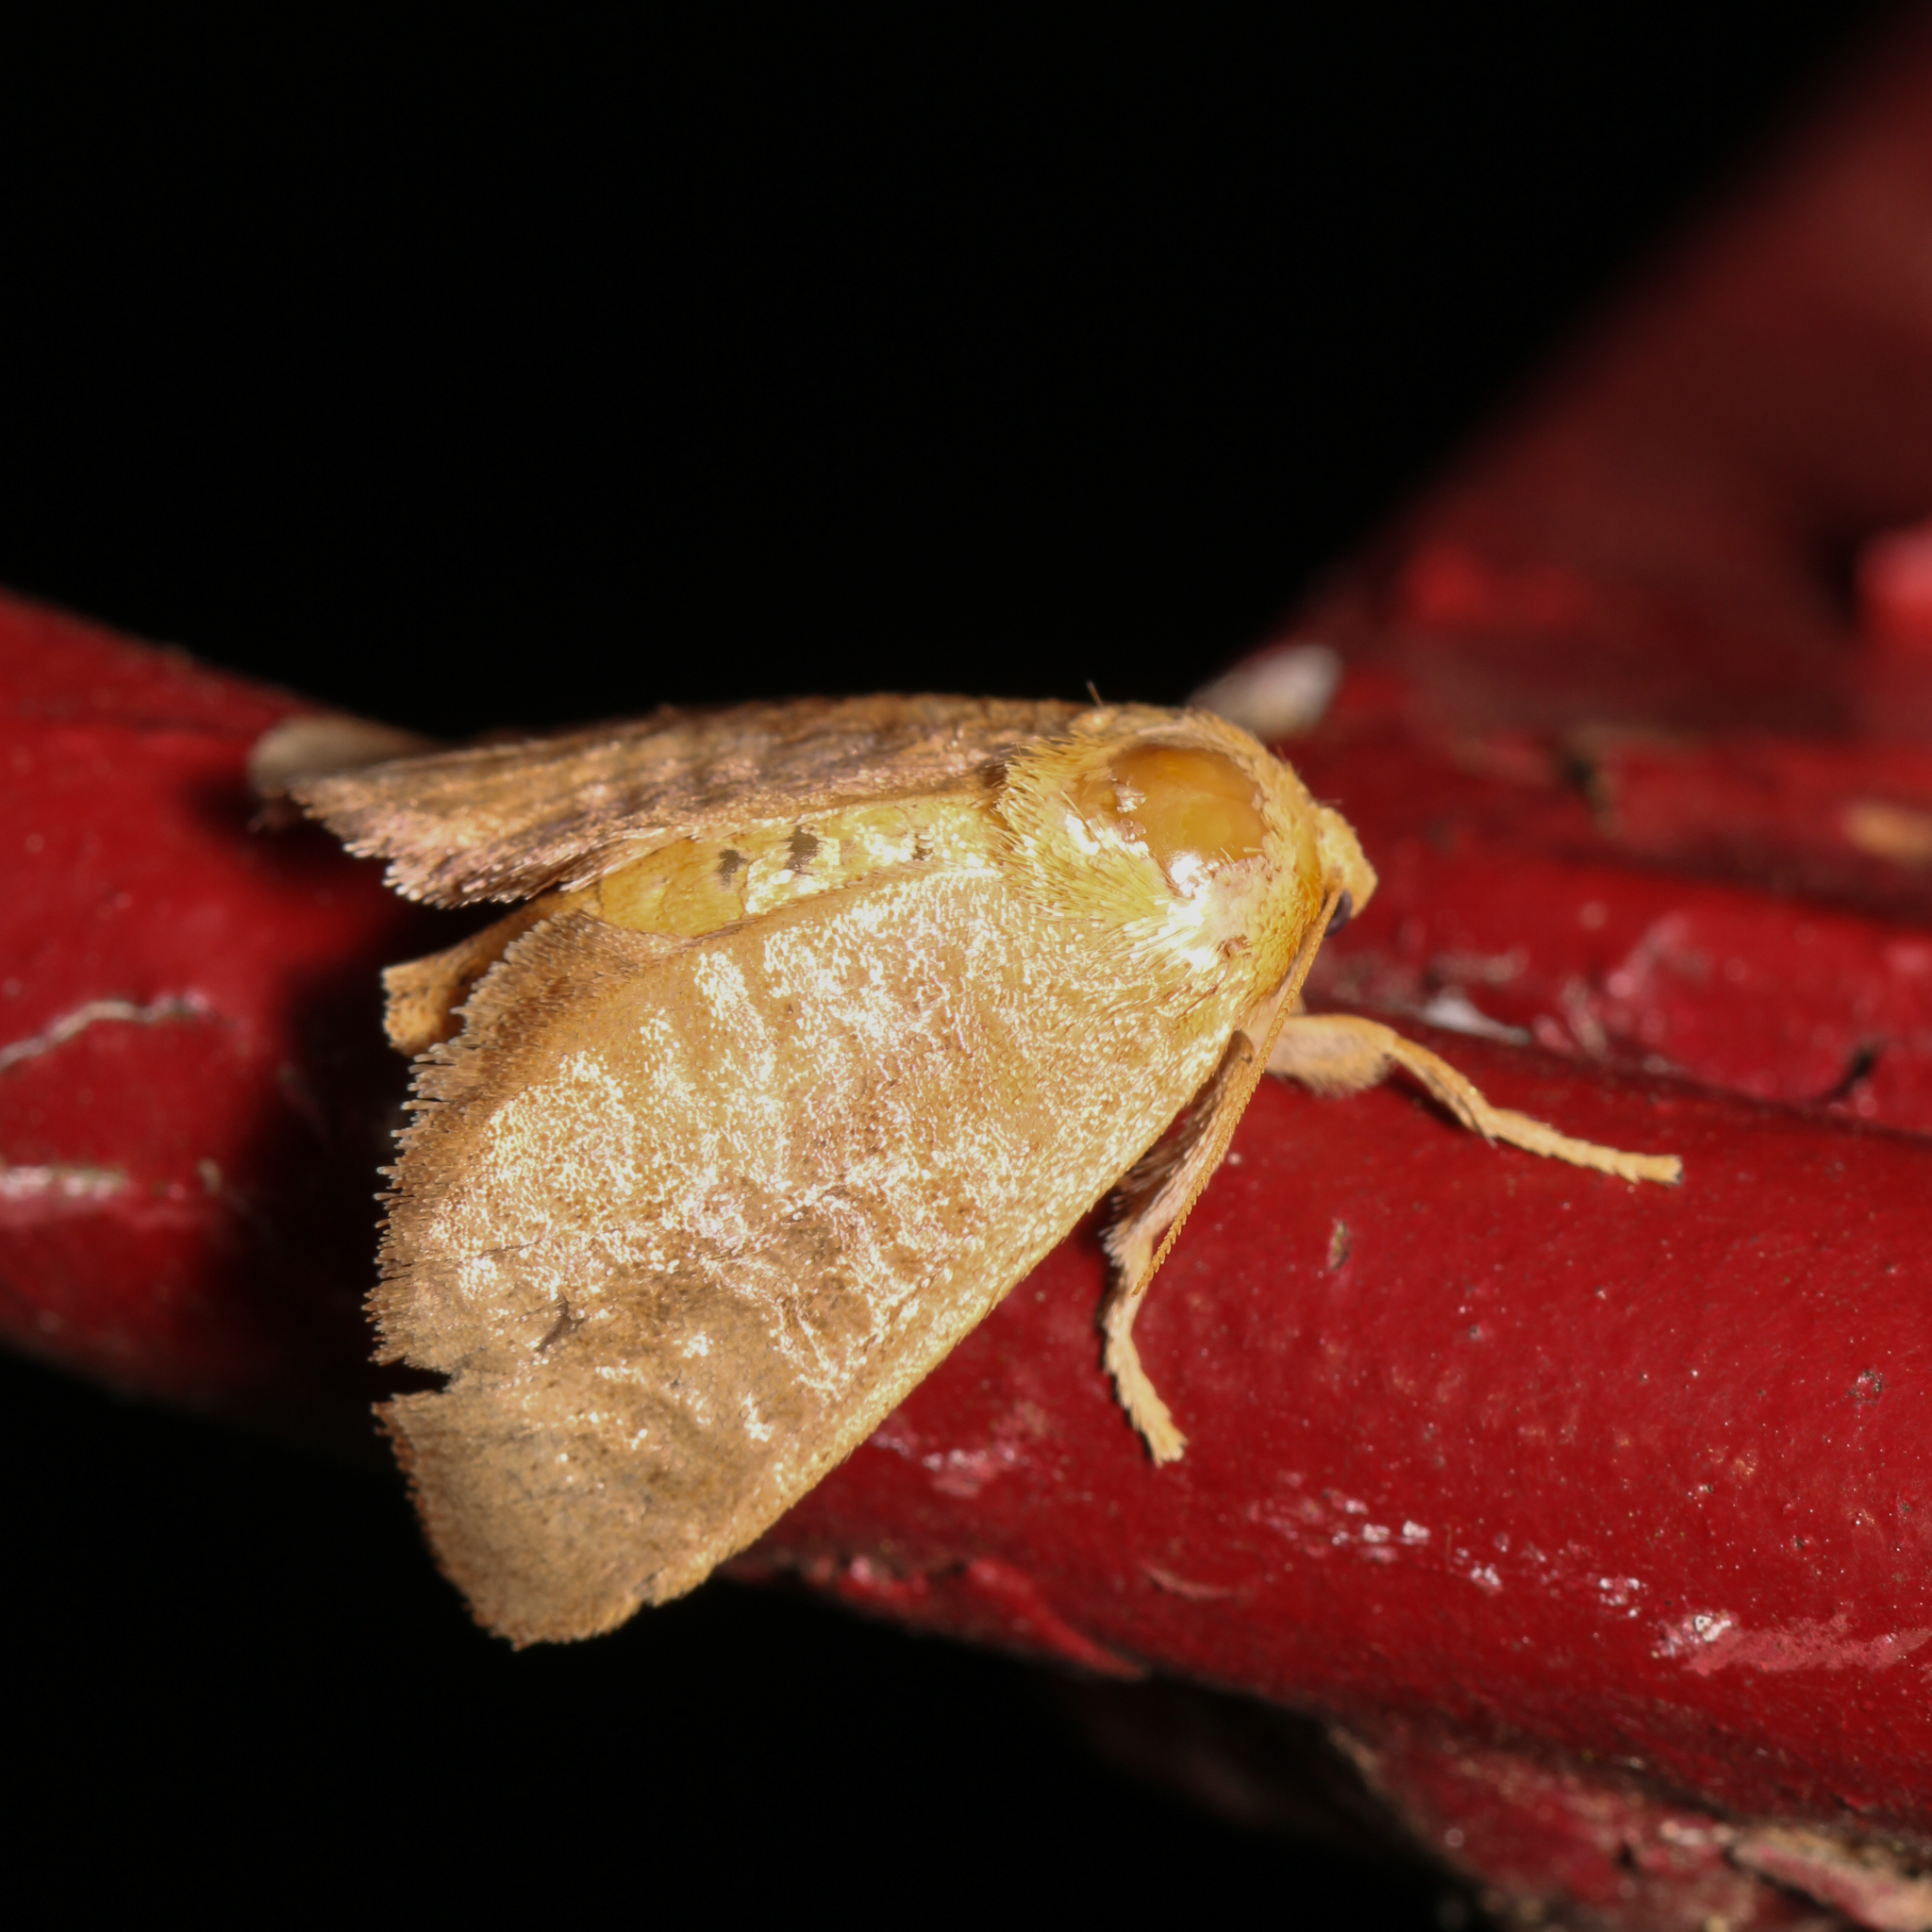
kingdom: Animalia
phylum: Arthropoda
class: Insecta
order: Lepidoptera
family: Limacodidae
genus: Isa
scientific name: Isa textula
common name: Crowned slug moth
